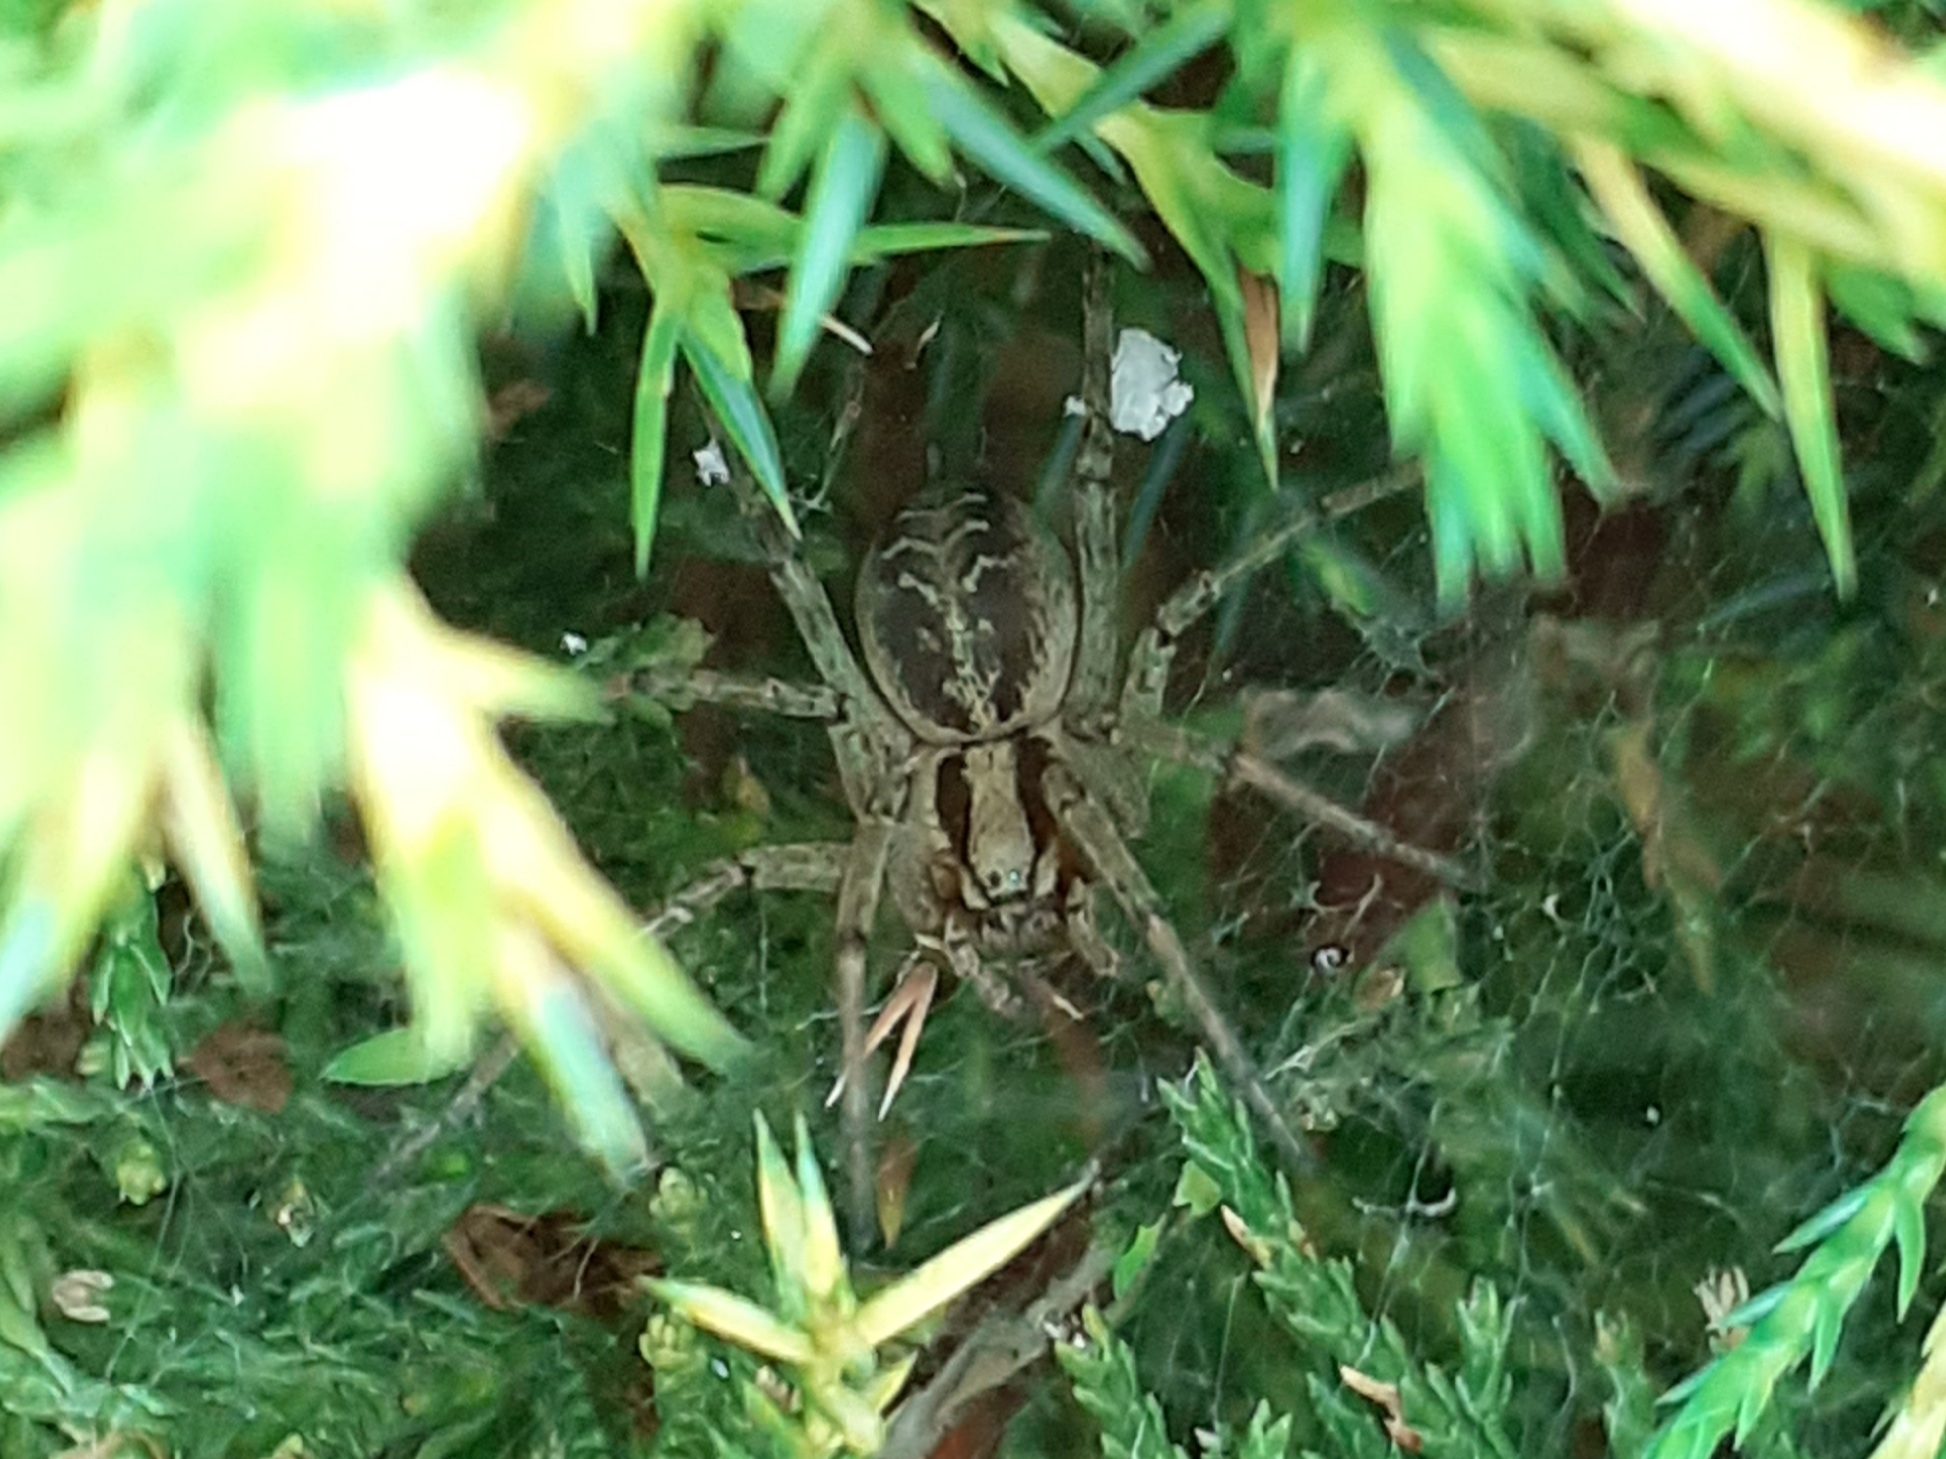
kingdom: Animalia
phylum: Arthropoda
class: Arachnida
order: Araneae
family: Agelenidae
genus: Agelena
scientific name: Agelena labyrinthica
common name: Labyrinth spider
